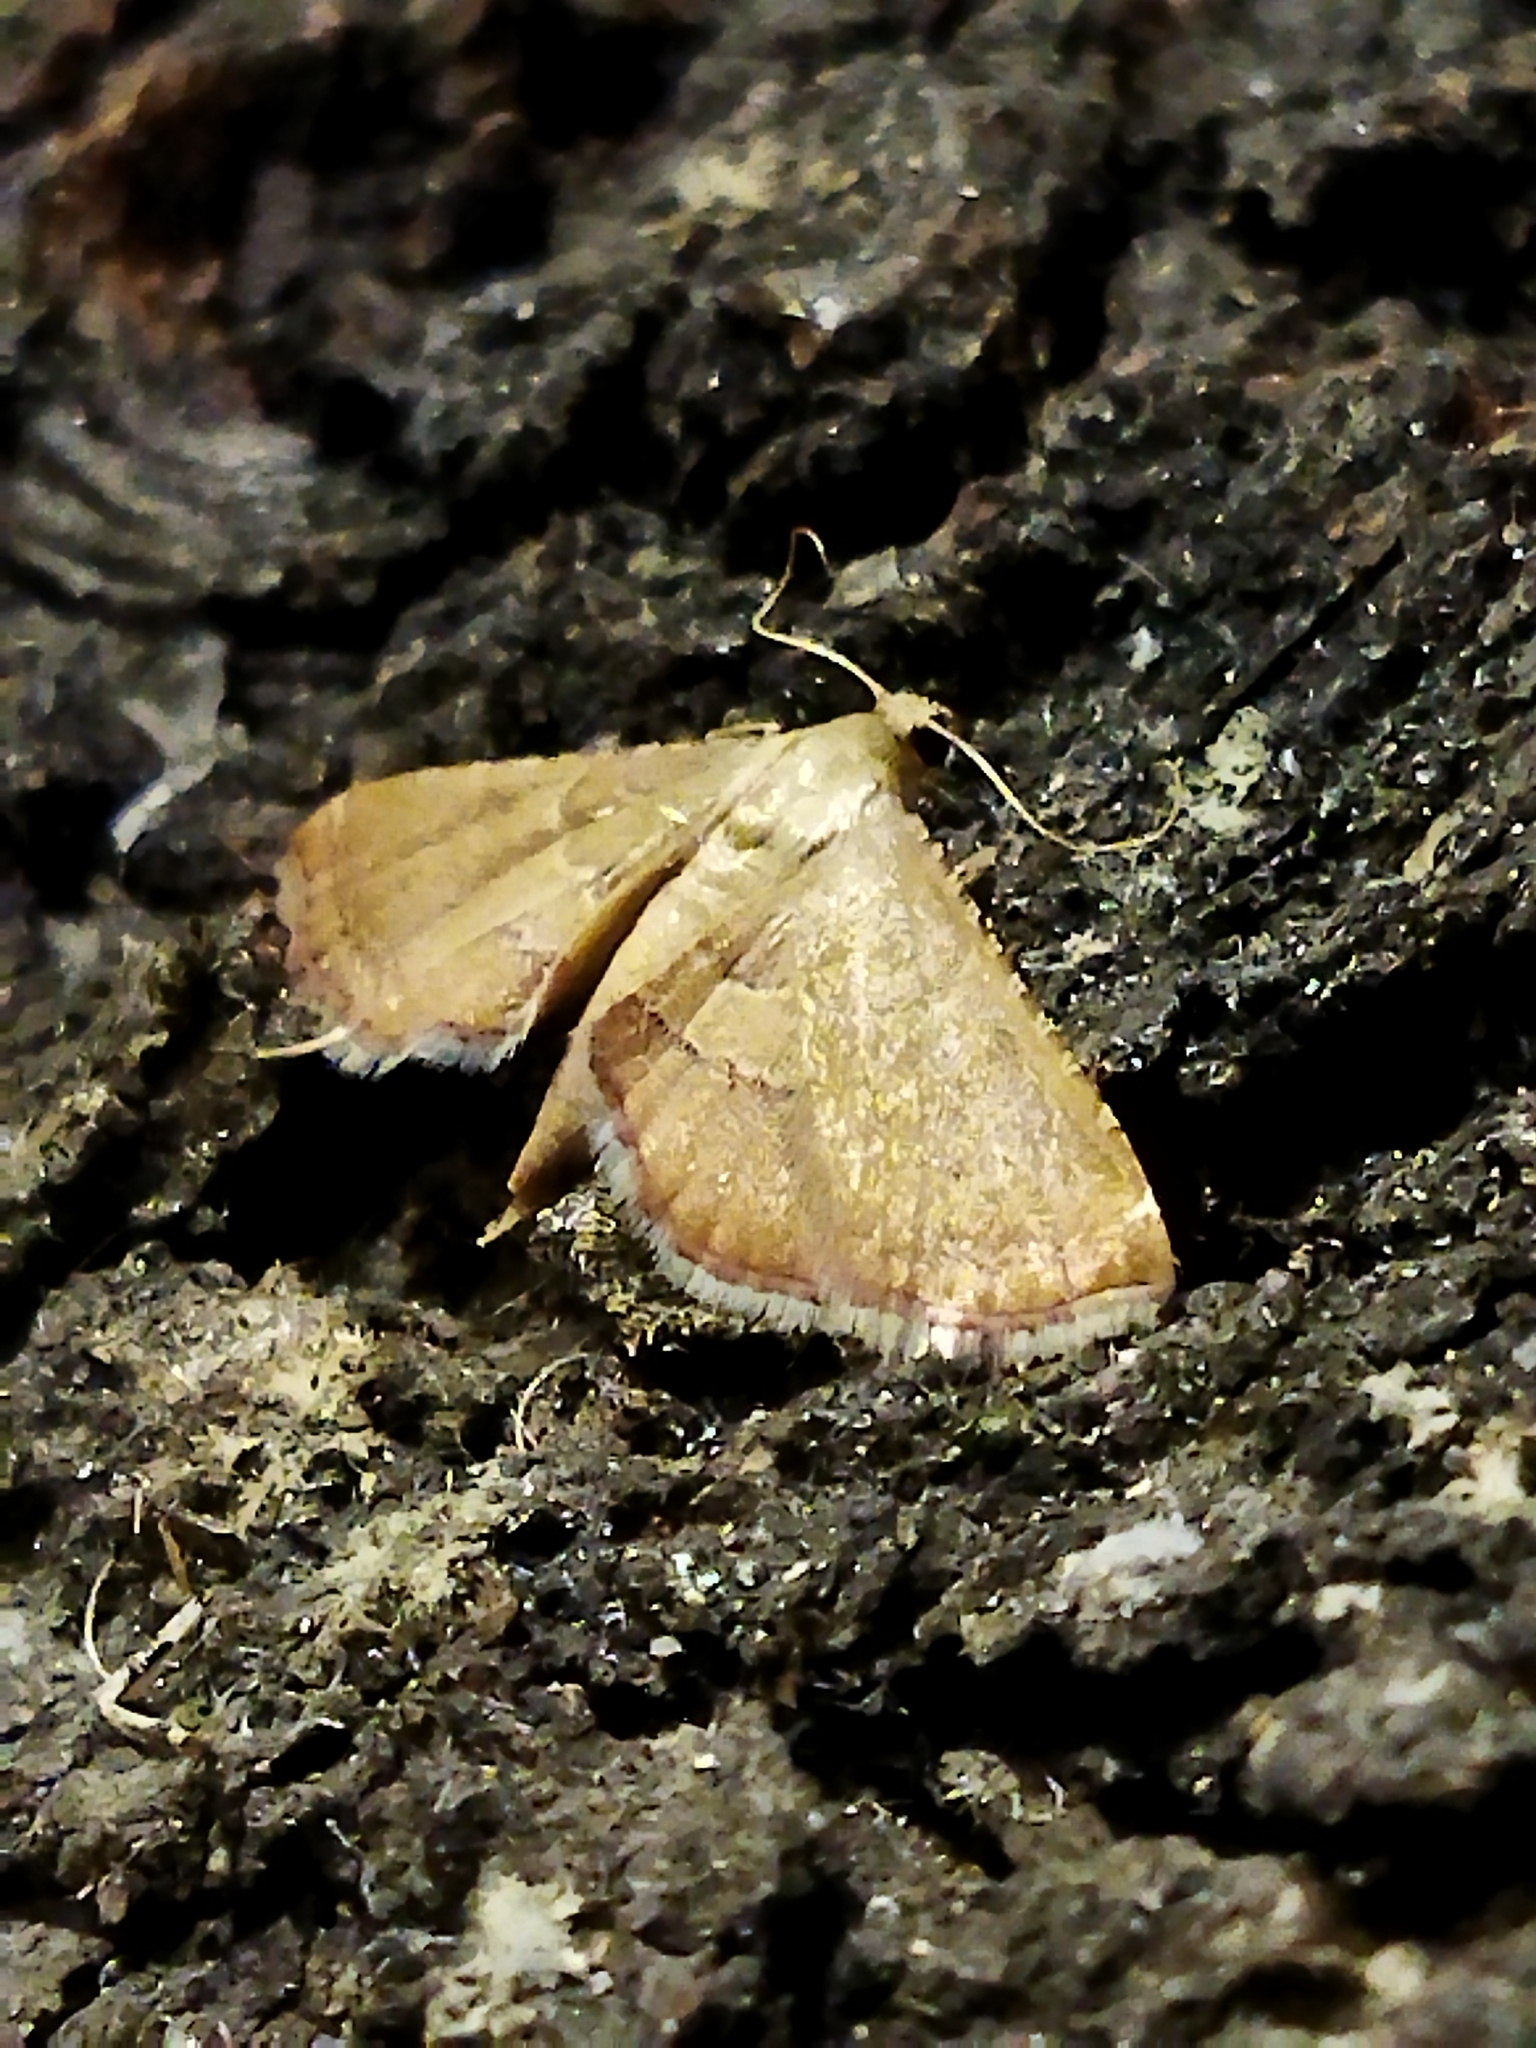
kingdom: Animalia
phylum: Arthropoda
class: Insecta
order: Lepidoptera
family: Pyralidae
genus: Endotricha
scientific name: Endotricha flammealis
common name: Rosy tabby
